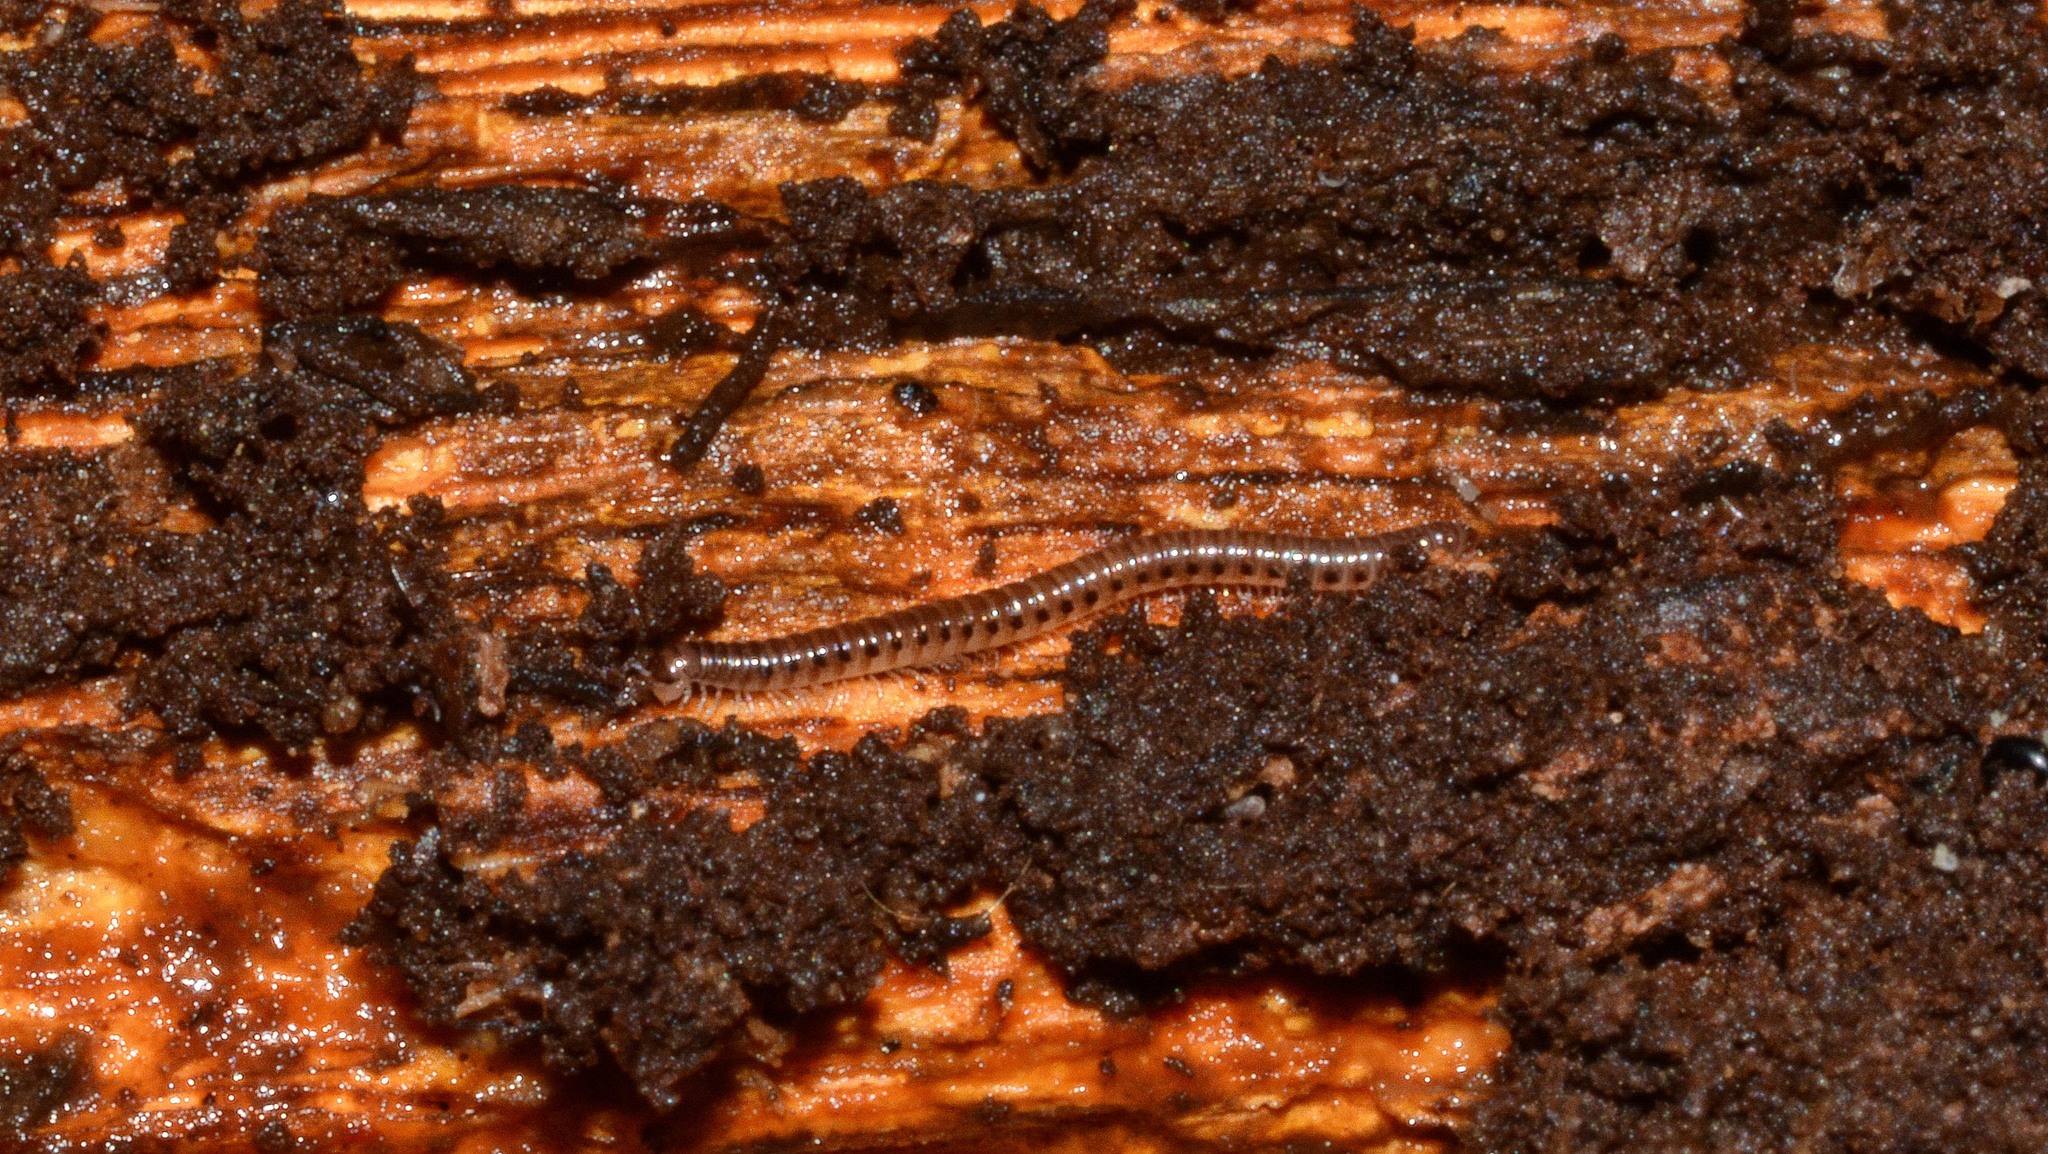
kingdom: Animalia
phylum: Arthropoda
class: Diplopoda
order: Julida
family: Blaniulidae
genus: Proteroiulus
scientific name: Proteroiulus fuscus
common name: Millipede
